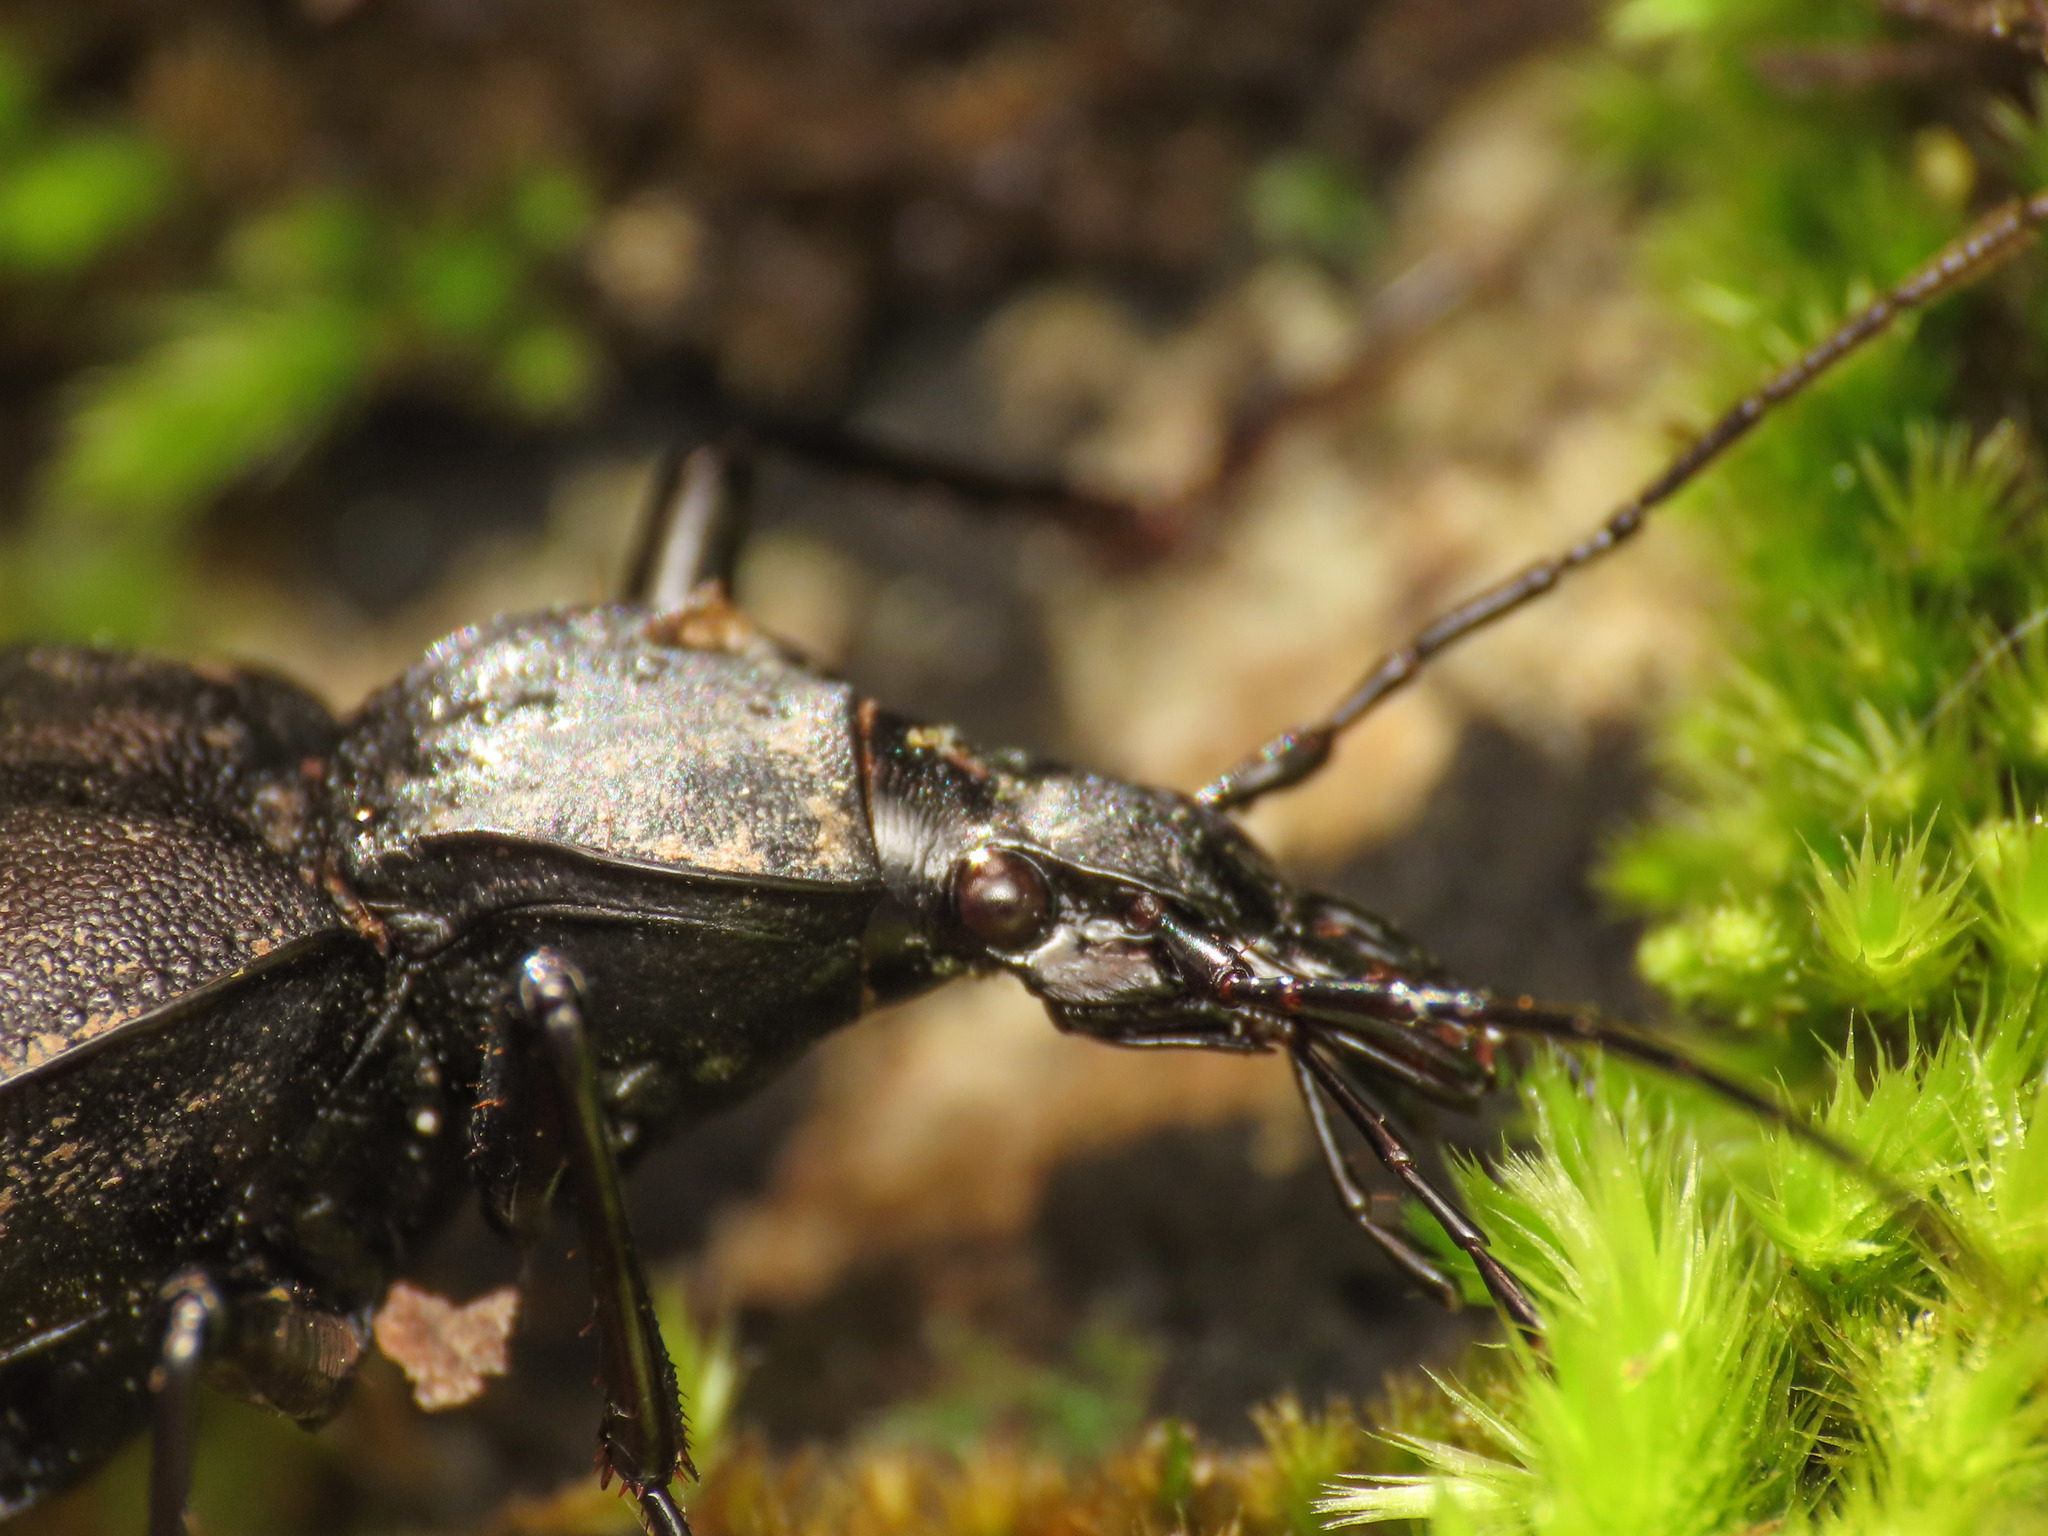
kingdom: Animalia
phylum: Arthropoda
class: Insecta
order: Coleoptera
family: Carabidae
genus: Cychrus
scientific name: Cychrus italicus
